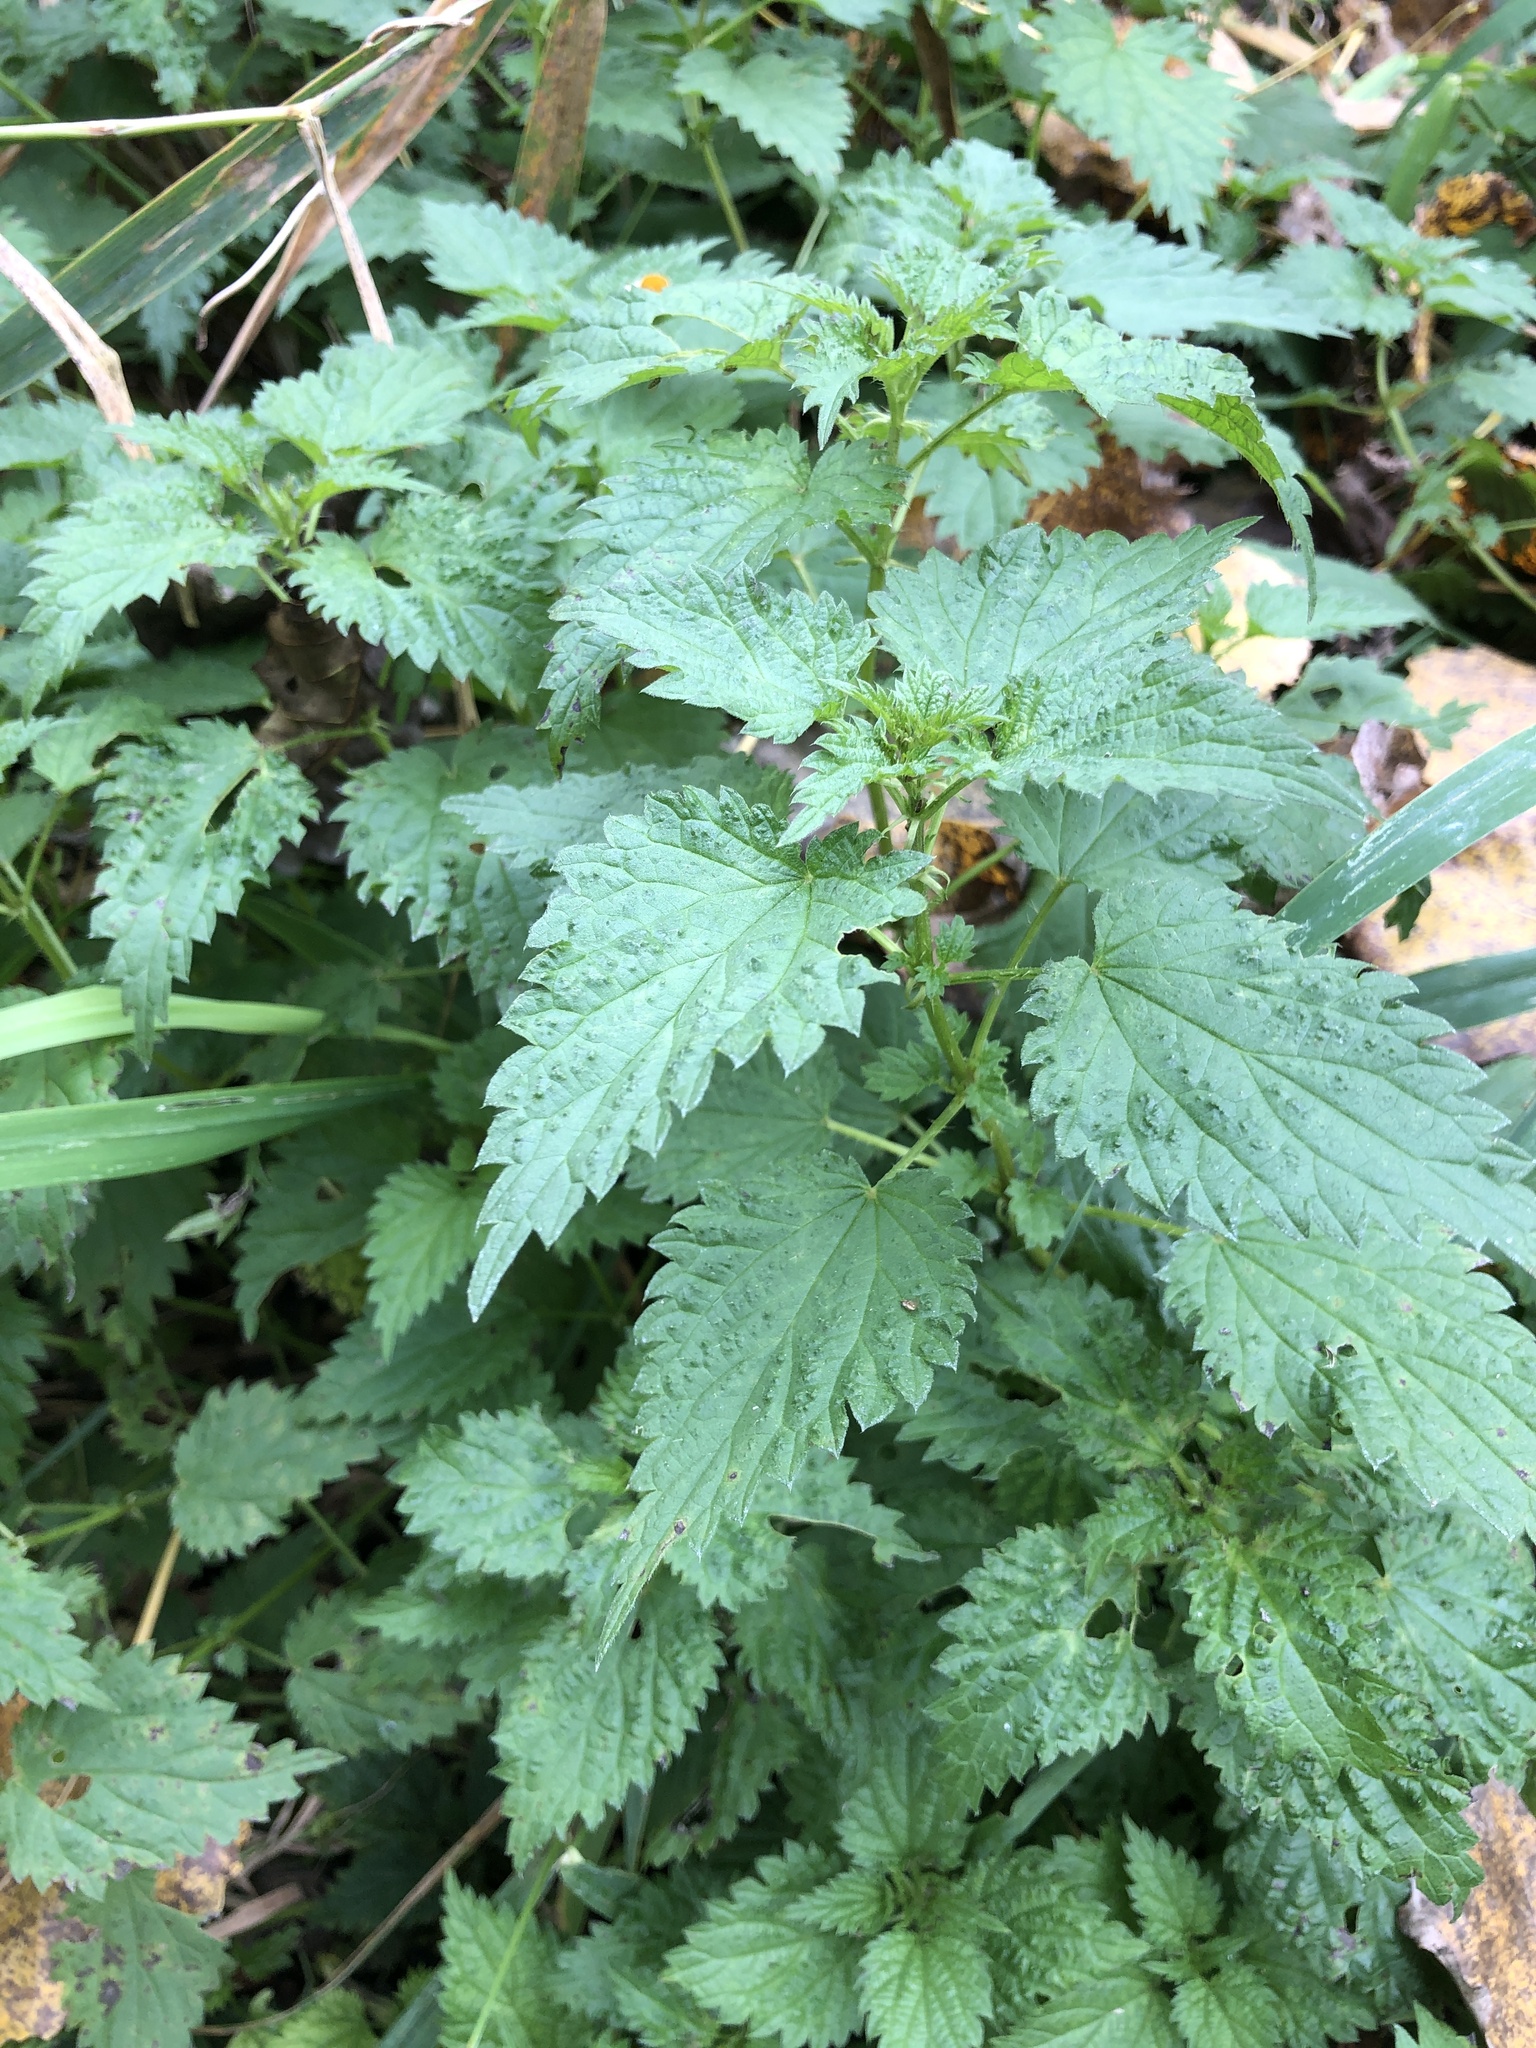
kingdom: Plantae
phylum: Tracheophyta
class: Magnoliopsida
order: Rosales
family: Urticaceae
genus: Urtica
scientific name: Urtica dioica
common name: Common nettle
